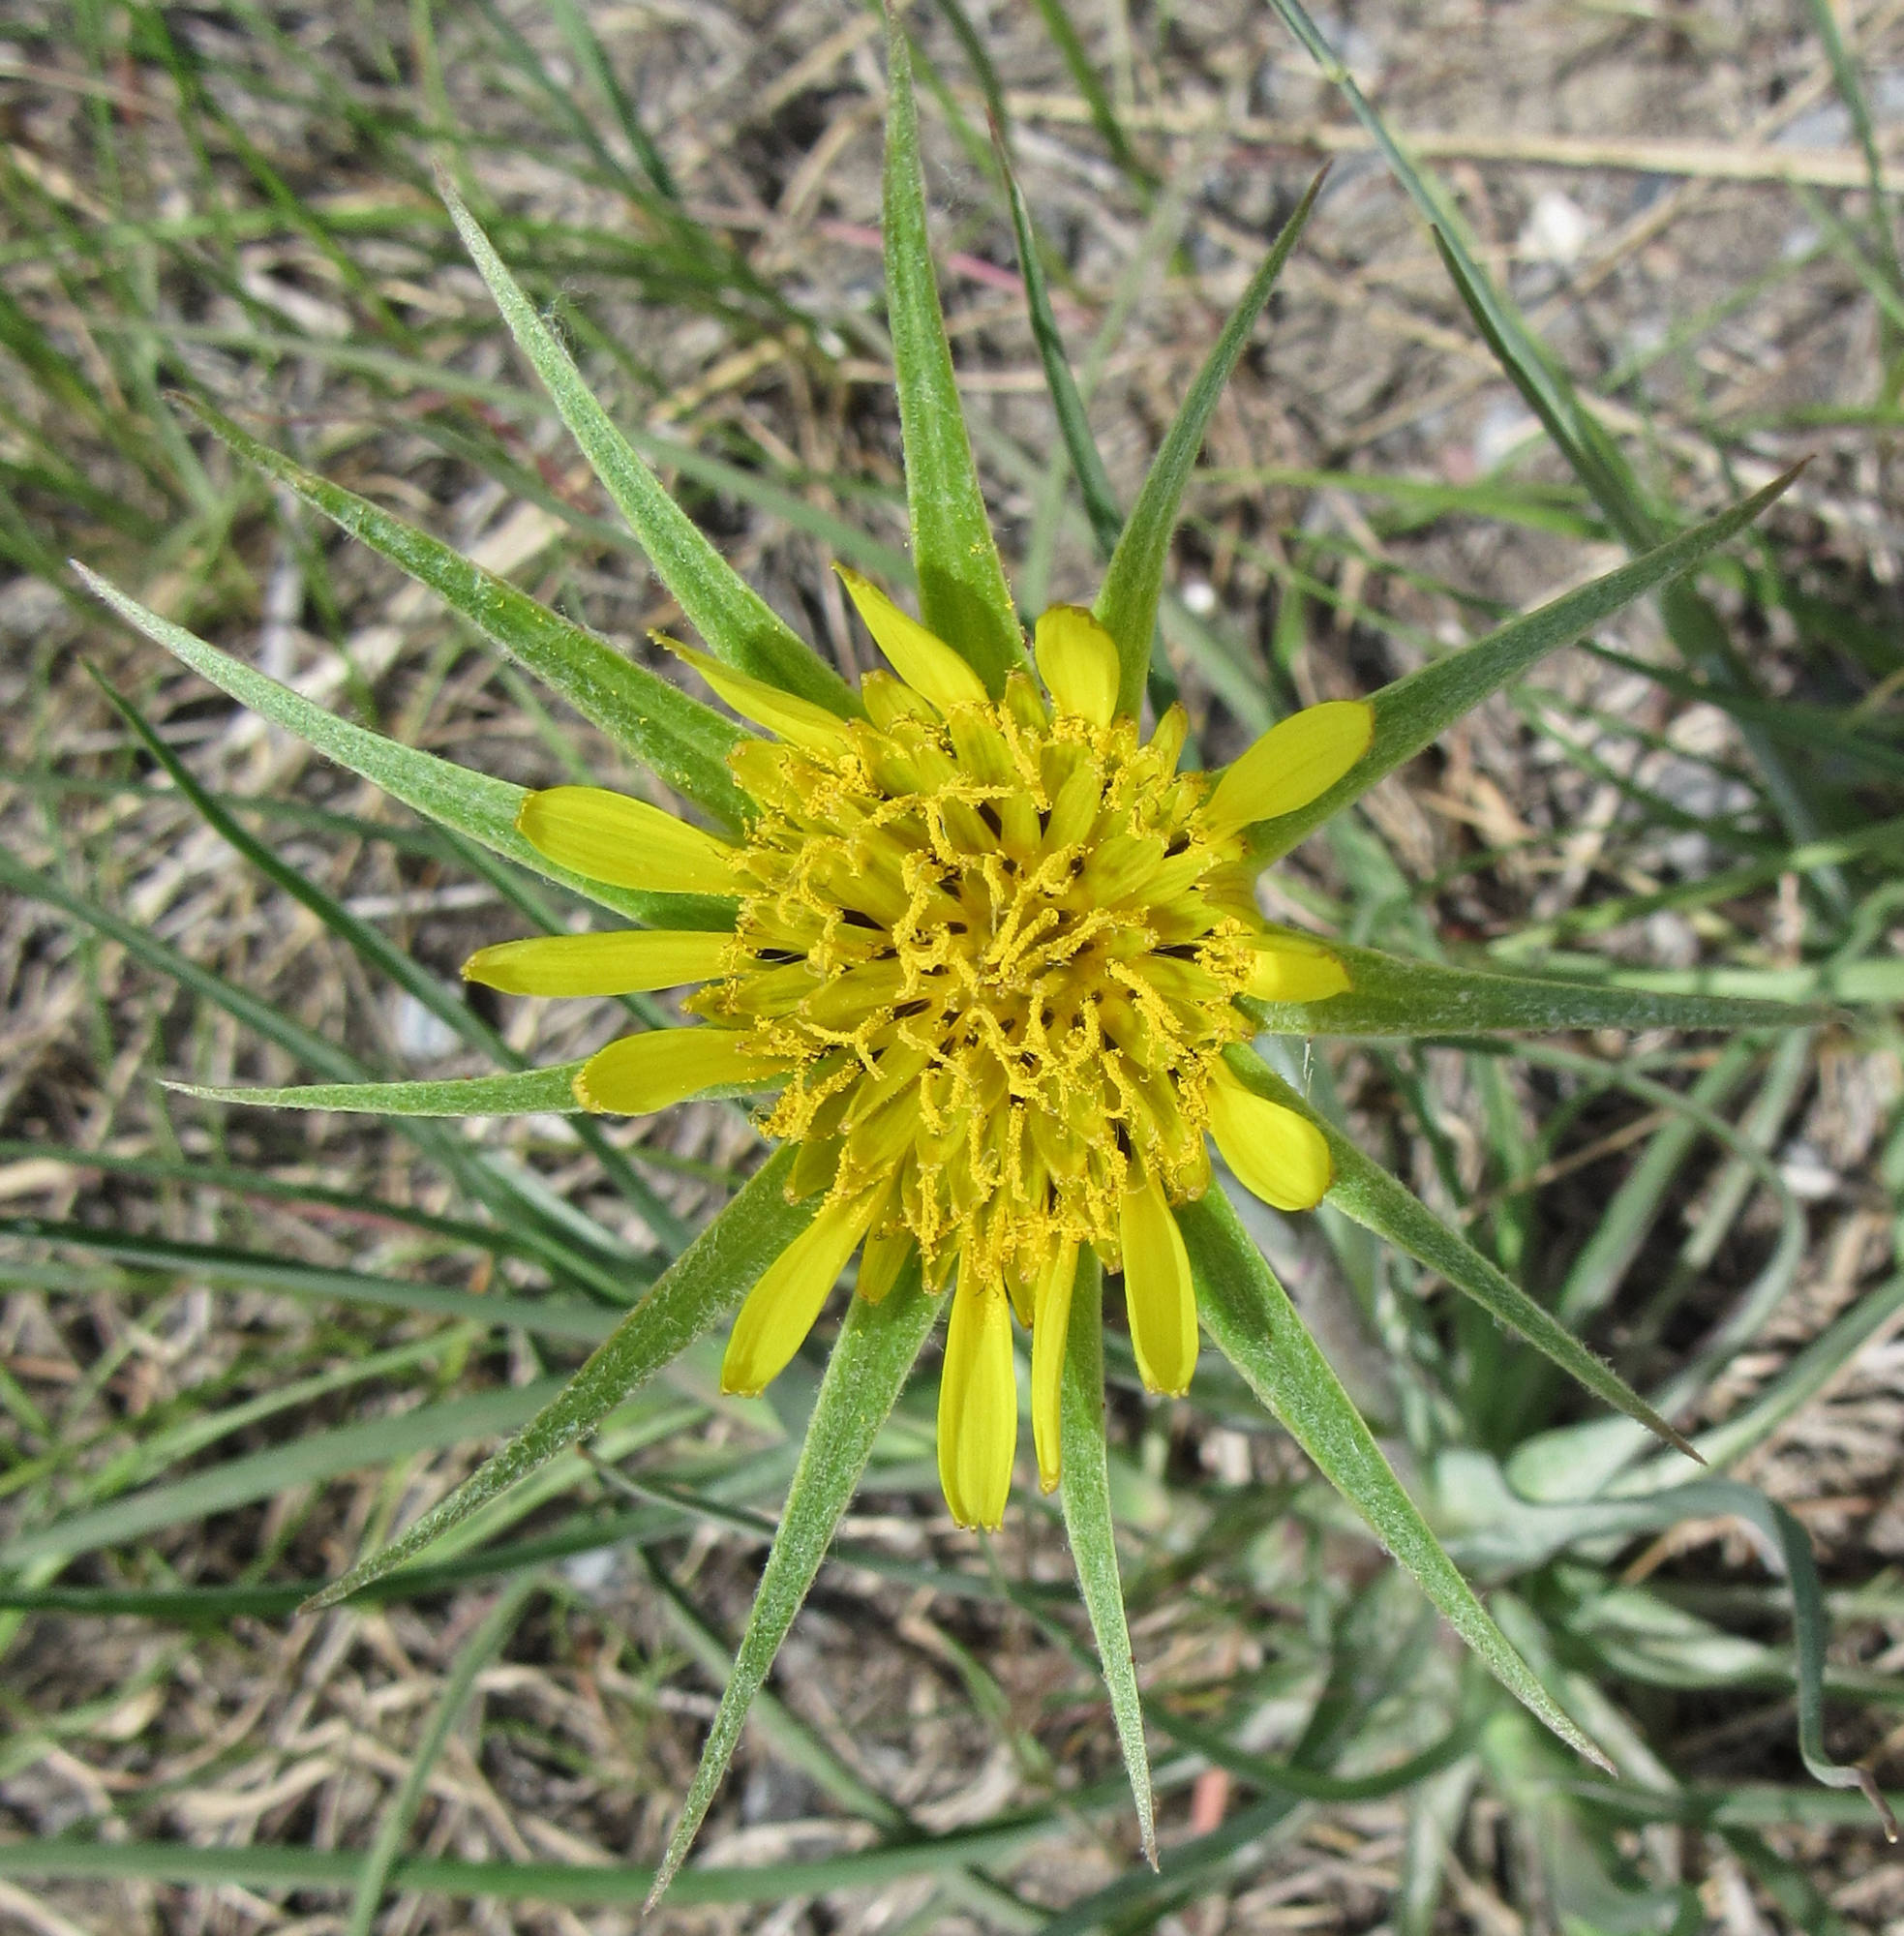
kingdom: Plantae
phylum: Tracheophyta
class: Magnoliopsida
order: Asterales
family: Asteraceae
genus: Tragopogon
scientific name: Tragopogon dubius
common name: Yellow salsify
